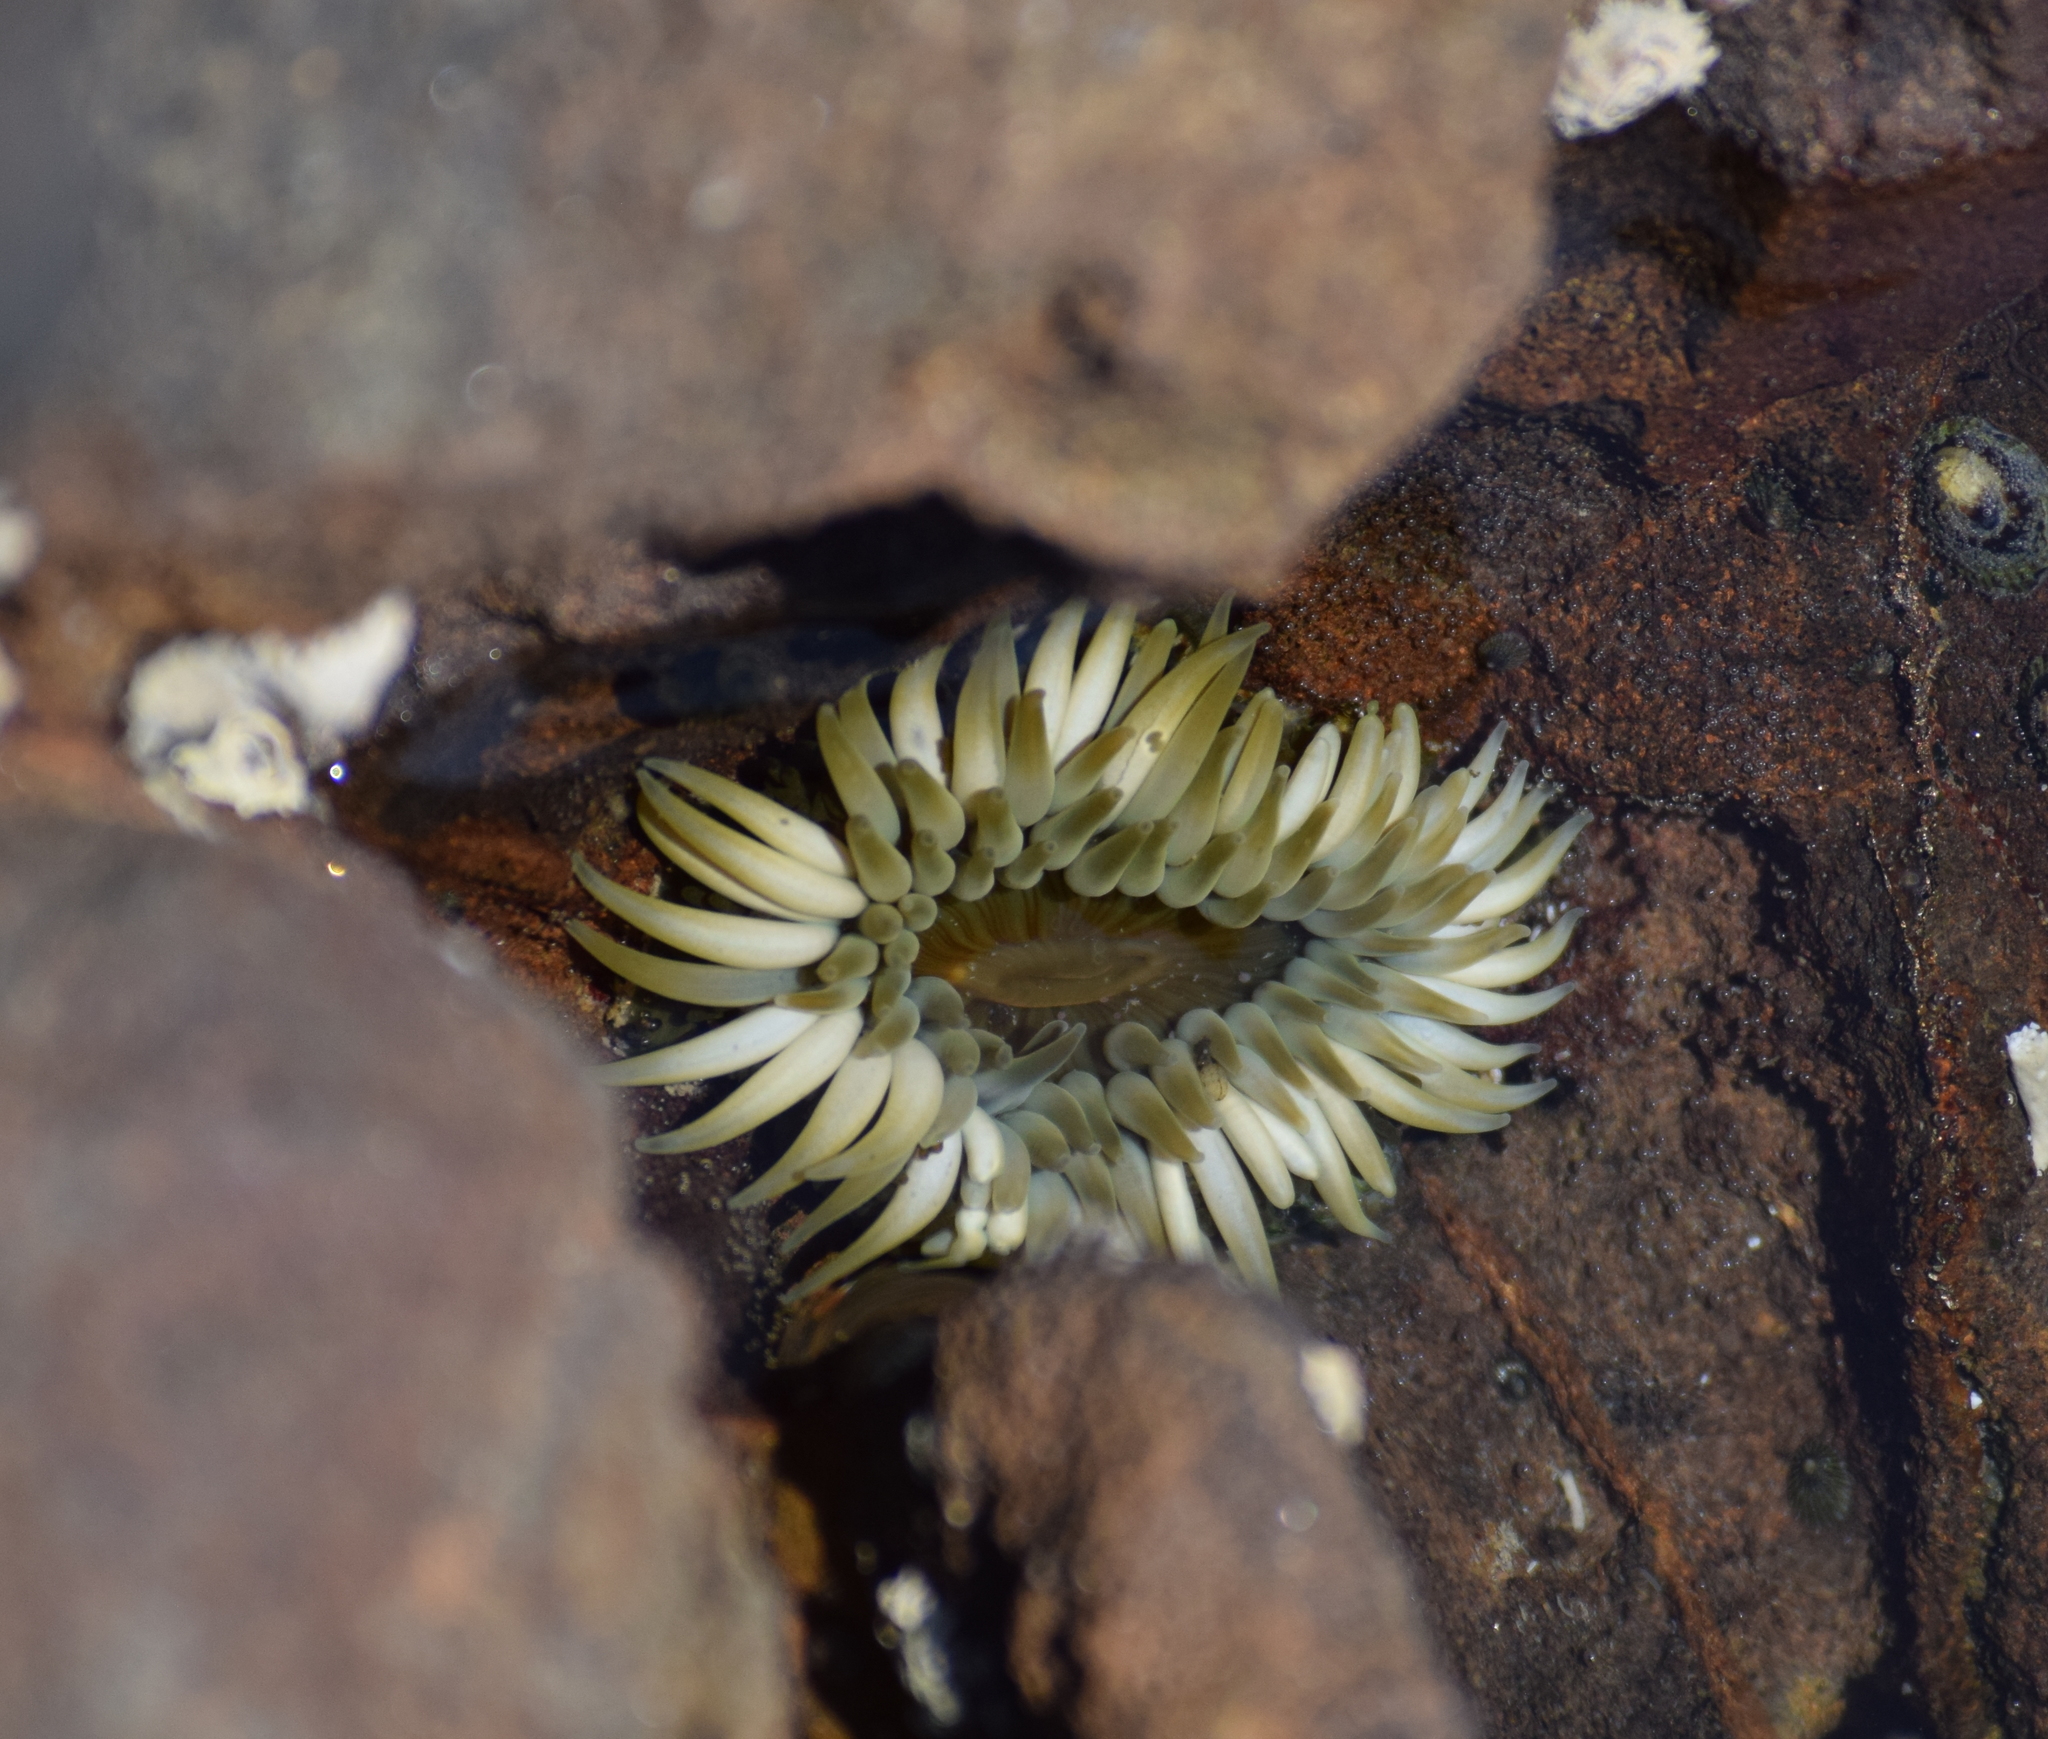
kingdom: Animalia
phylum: Cnidaria
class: Anthozoa
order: Actiniaria
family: Actiniidae
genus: Anthopleura
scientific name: Anthopleura sola
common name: Sun anemone
